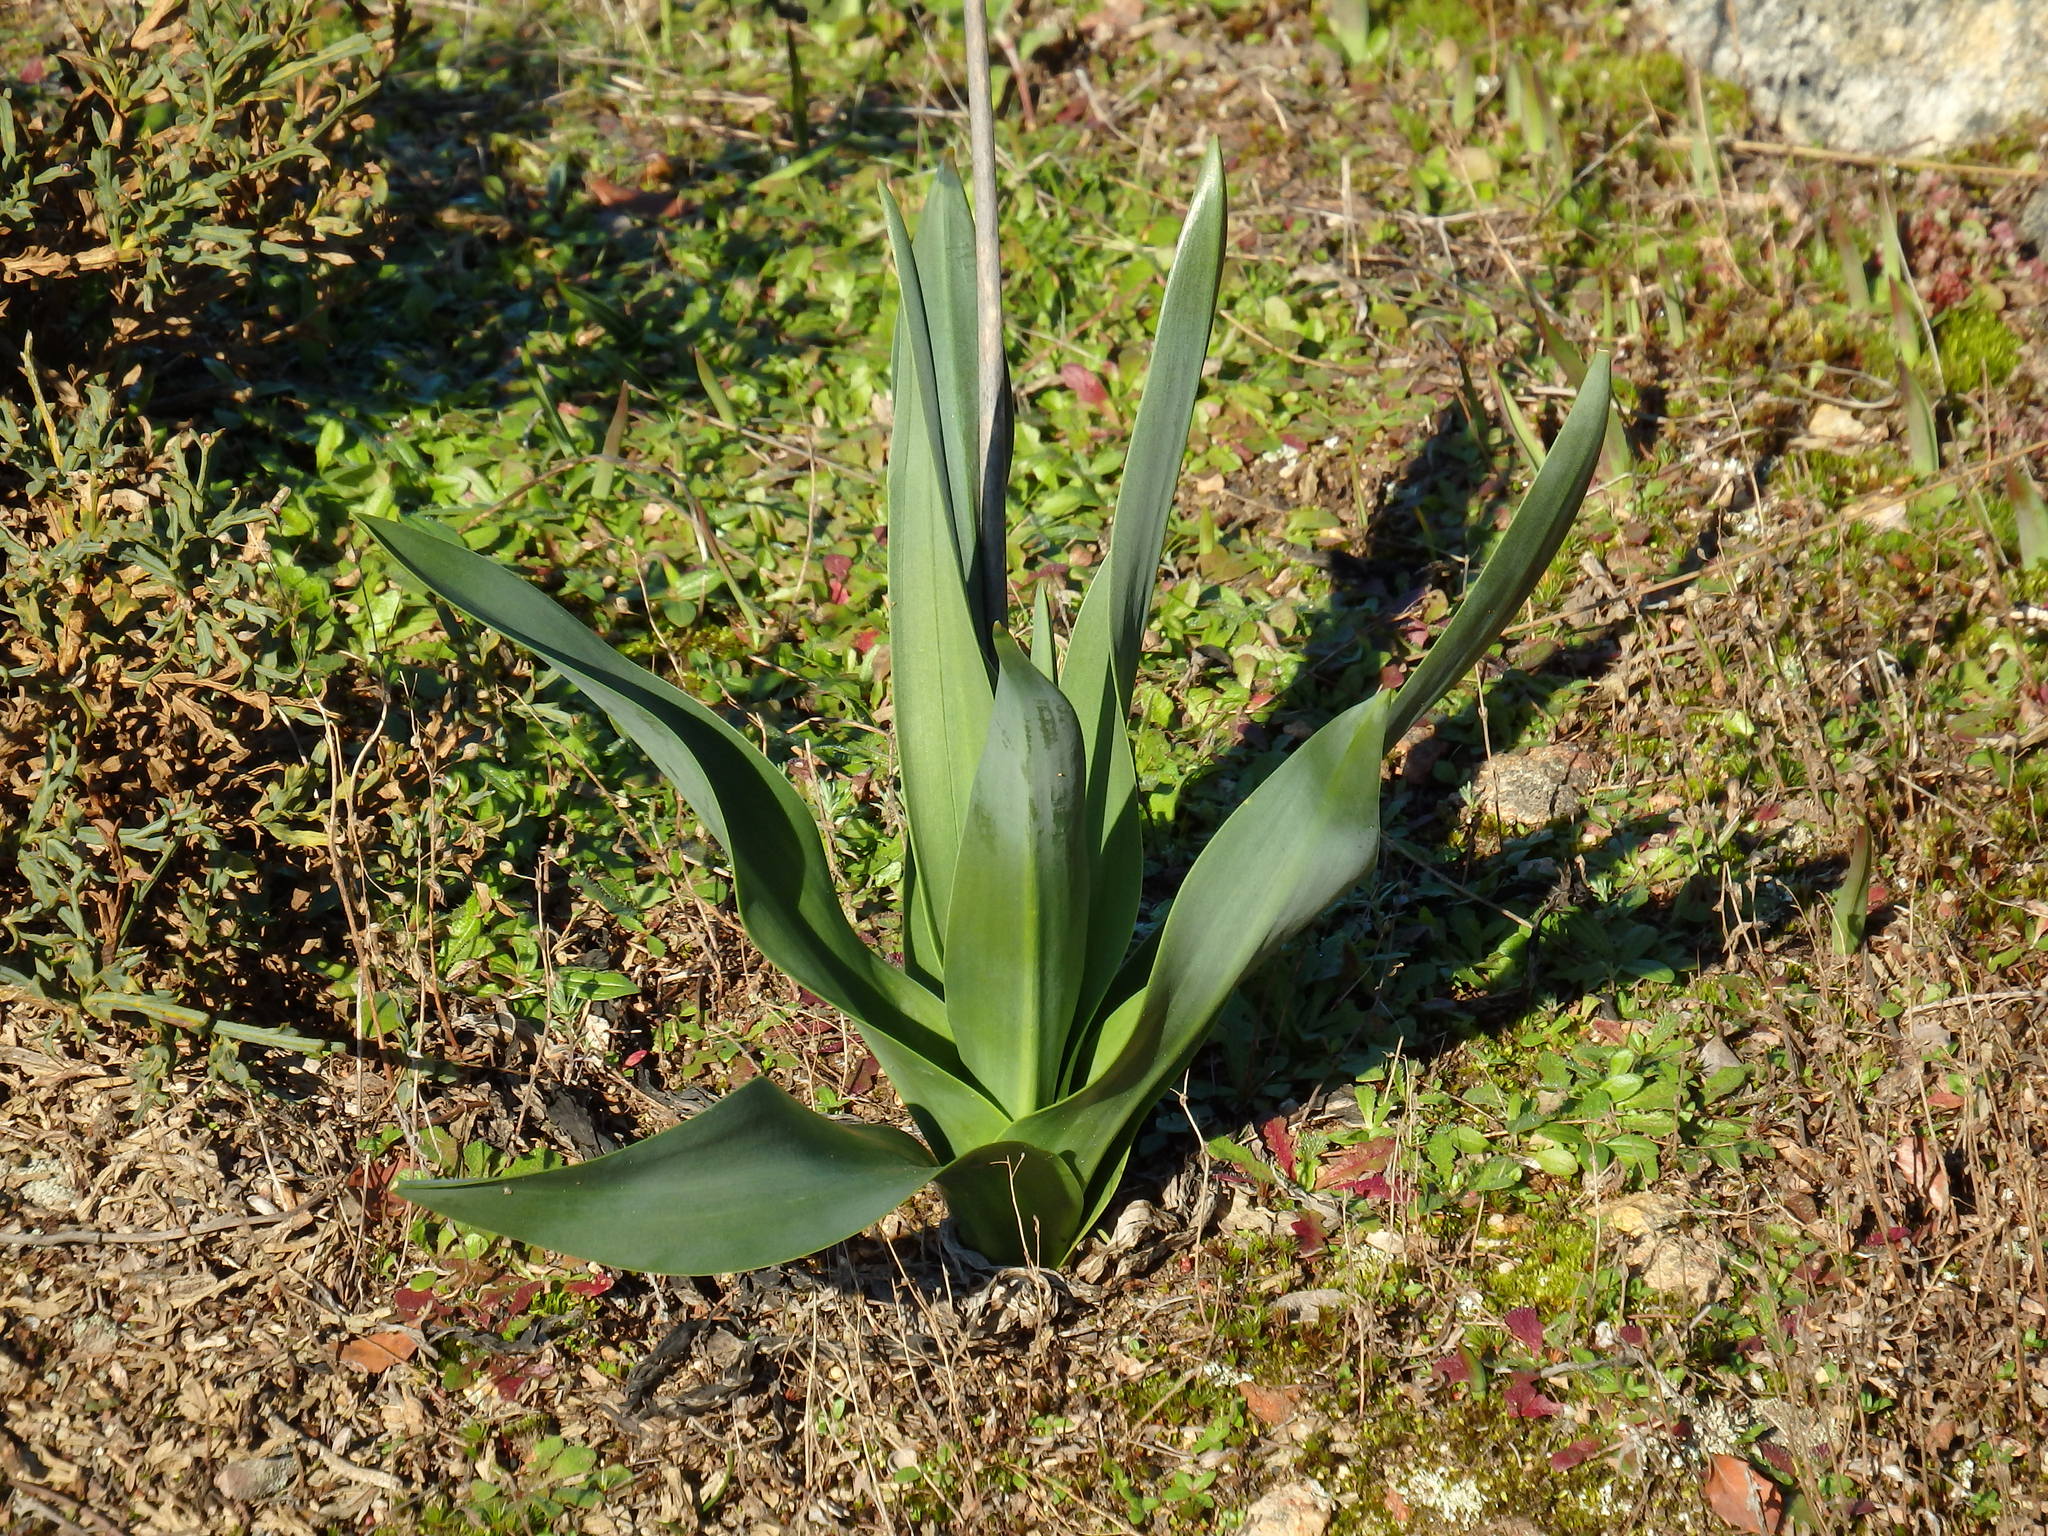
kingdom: Plantae
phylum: Tracheophyta
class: Liliopsida
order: Asparagales
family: Asparagaceae
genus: Drimia
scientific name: Drimia maritima
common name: Maritime squill
